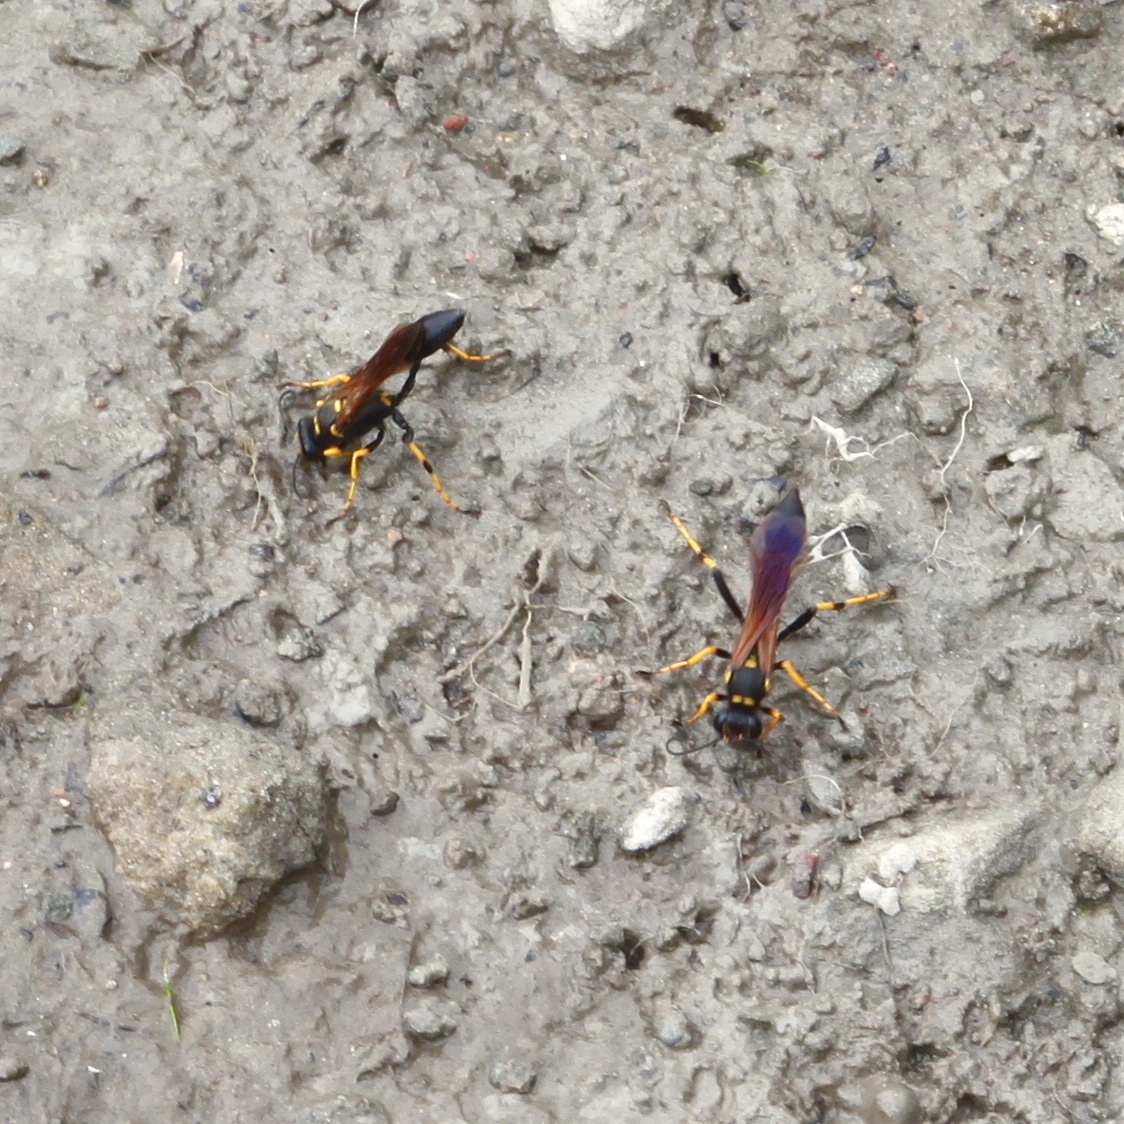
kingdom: Animalia
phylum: Arthropoda
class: Insecta
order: Hymenoptera
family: Sphecidae
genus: Sceliphron
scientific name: Sceliphron caementarium
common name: Mud dauber
